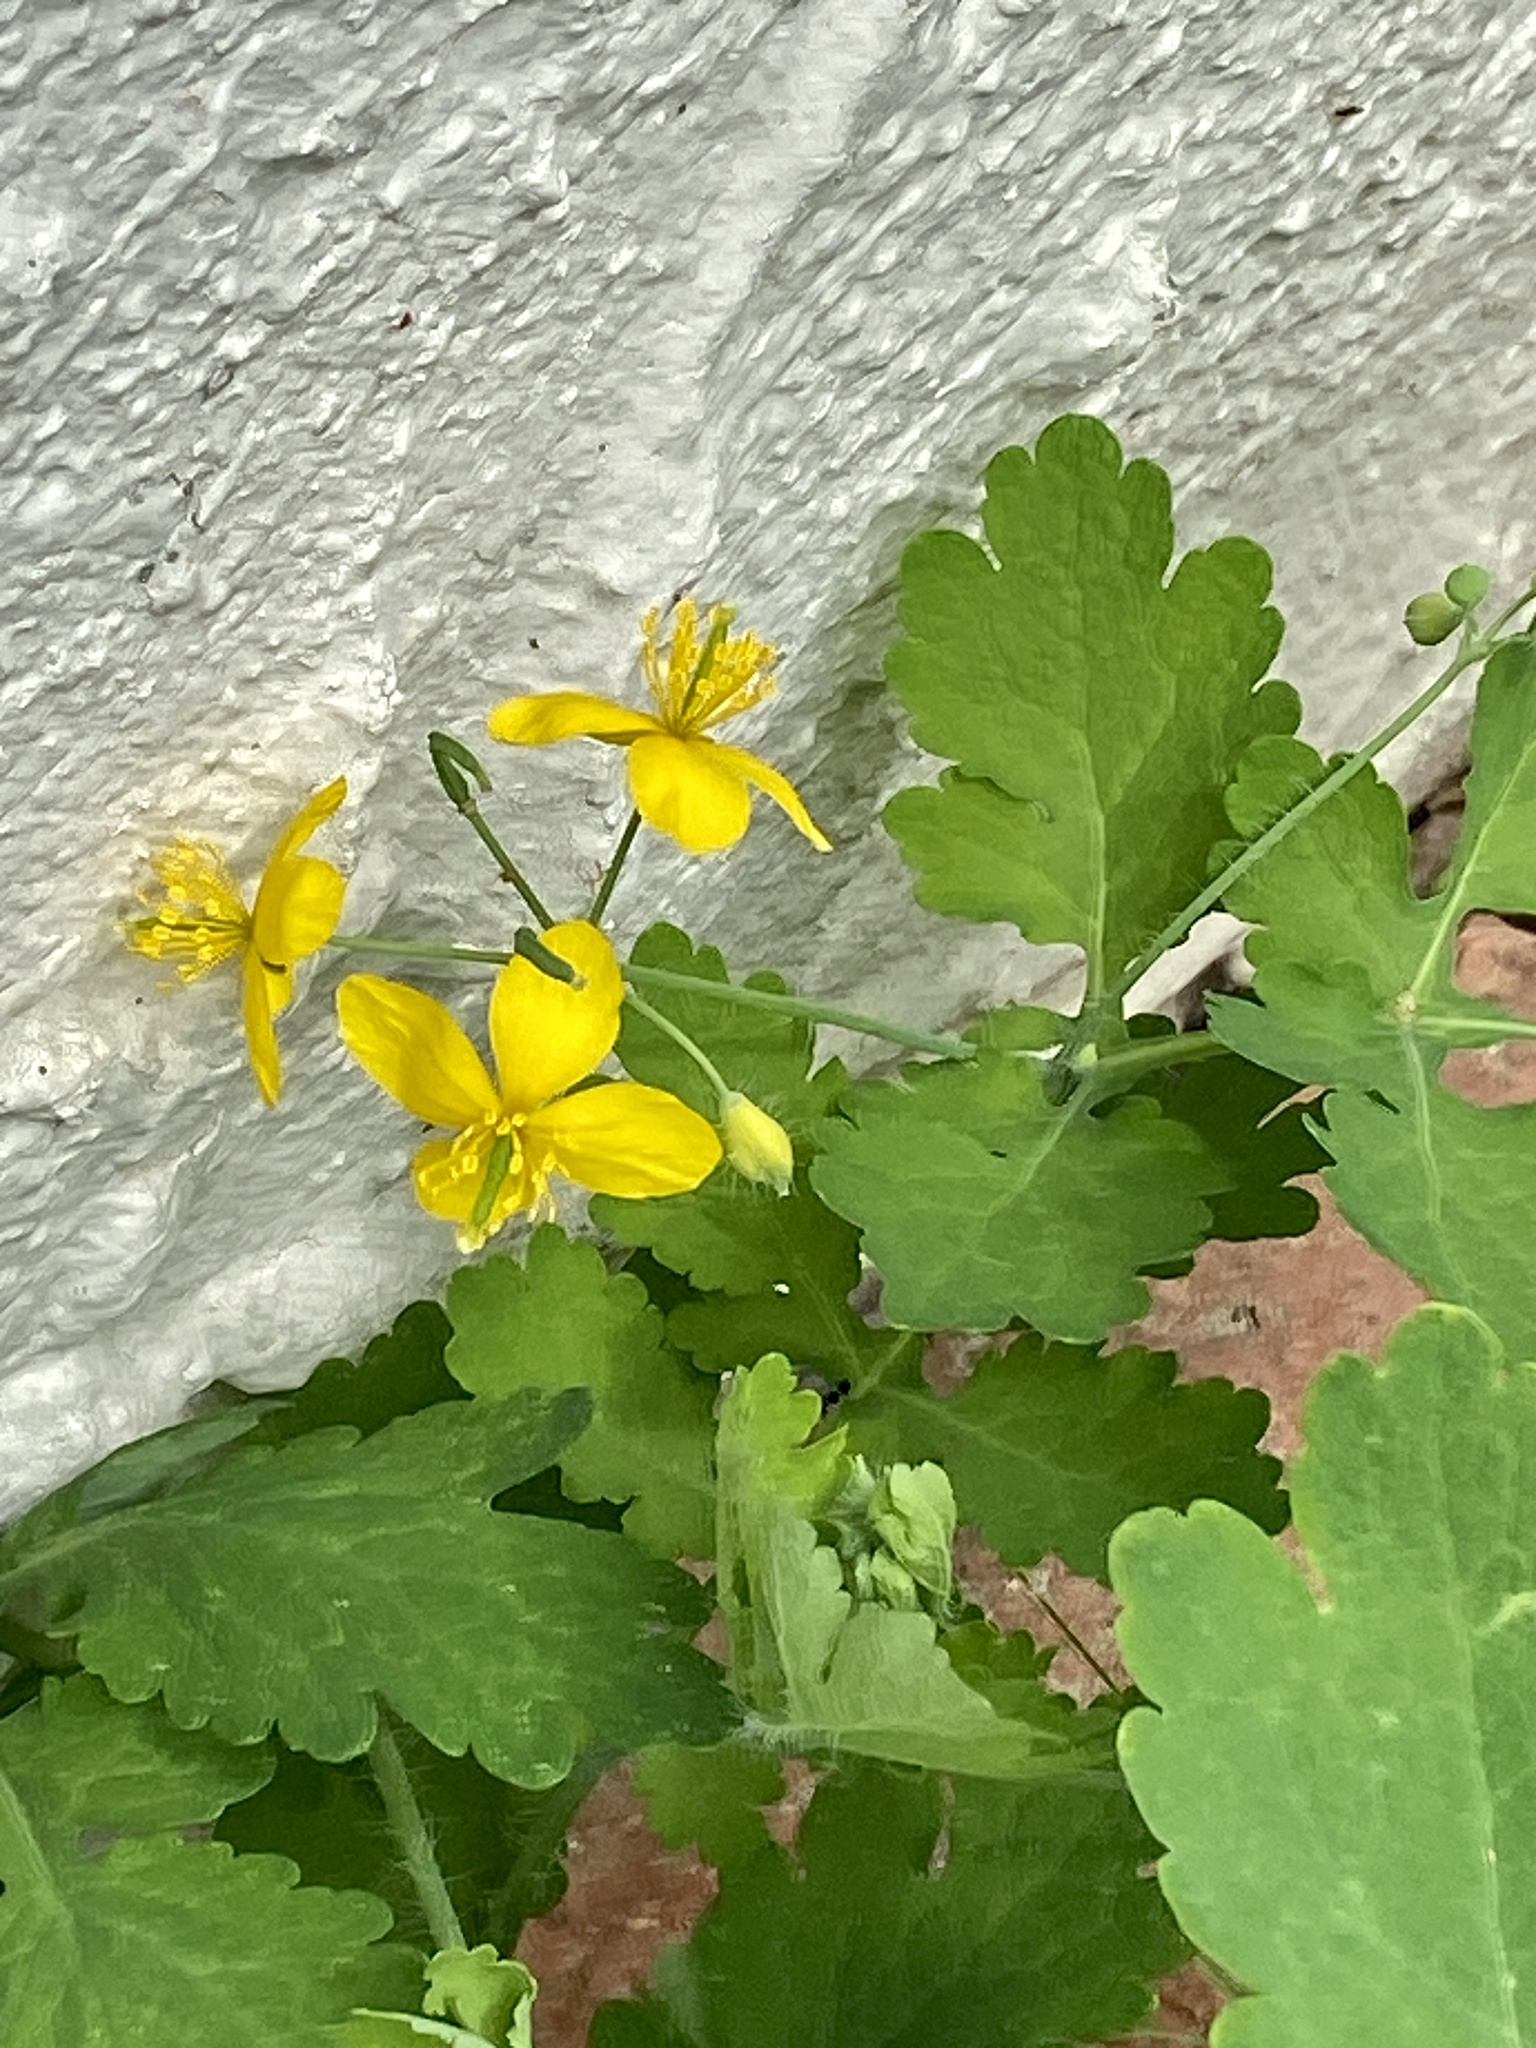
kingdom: Plantae
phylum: Tracheophyta
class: Magnoliopsida
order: Ranunculales
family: Papaveraceae
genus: Chelidonium
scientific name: Chelidonium majus
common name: Greater celandine
